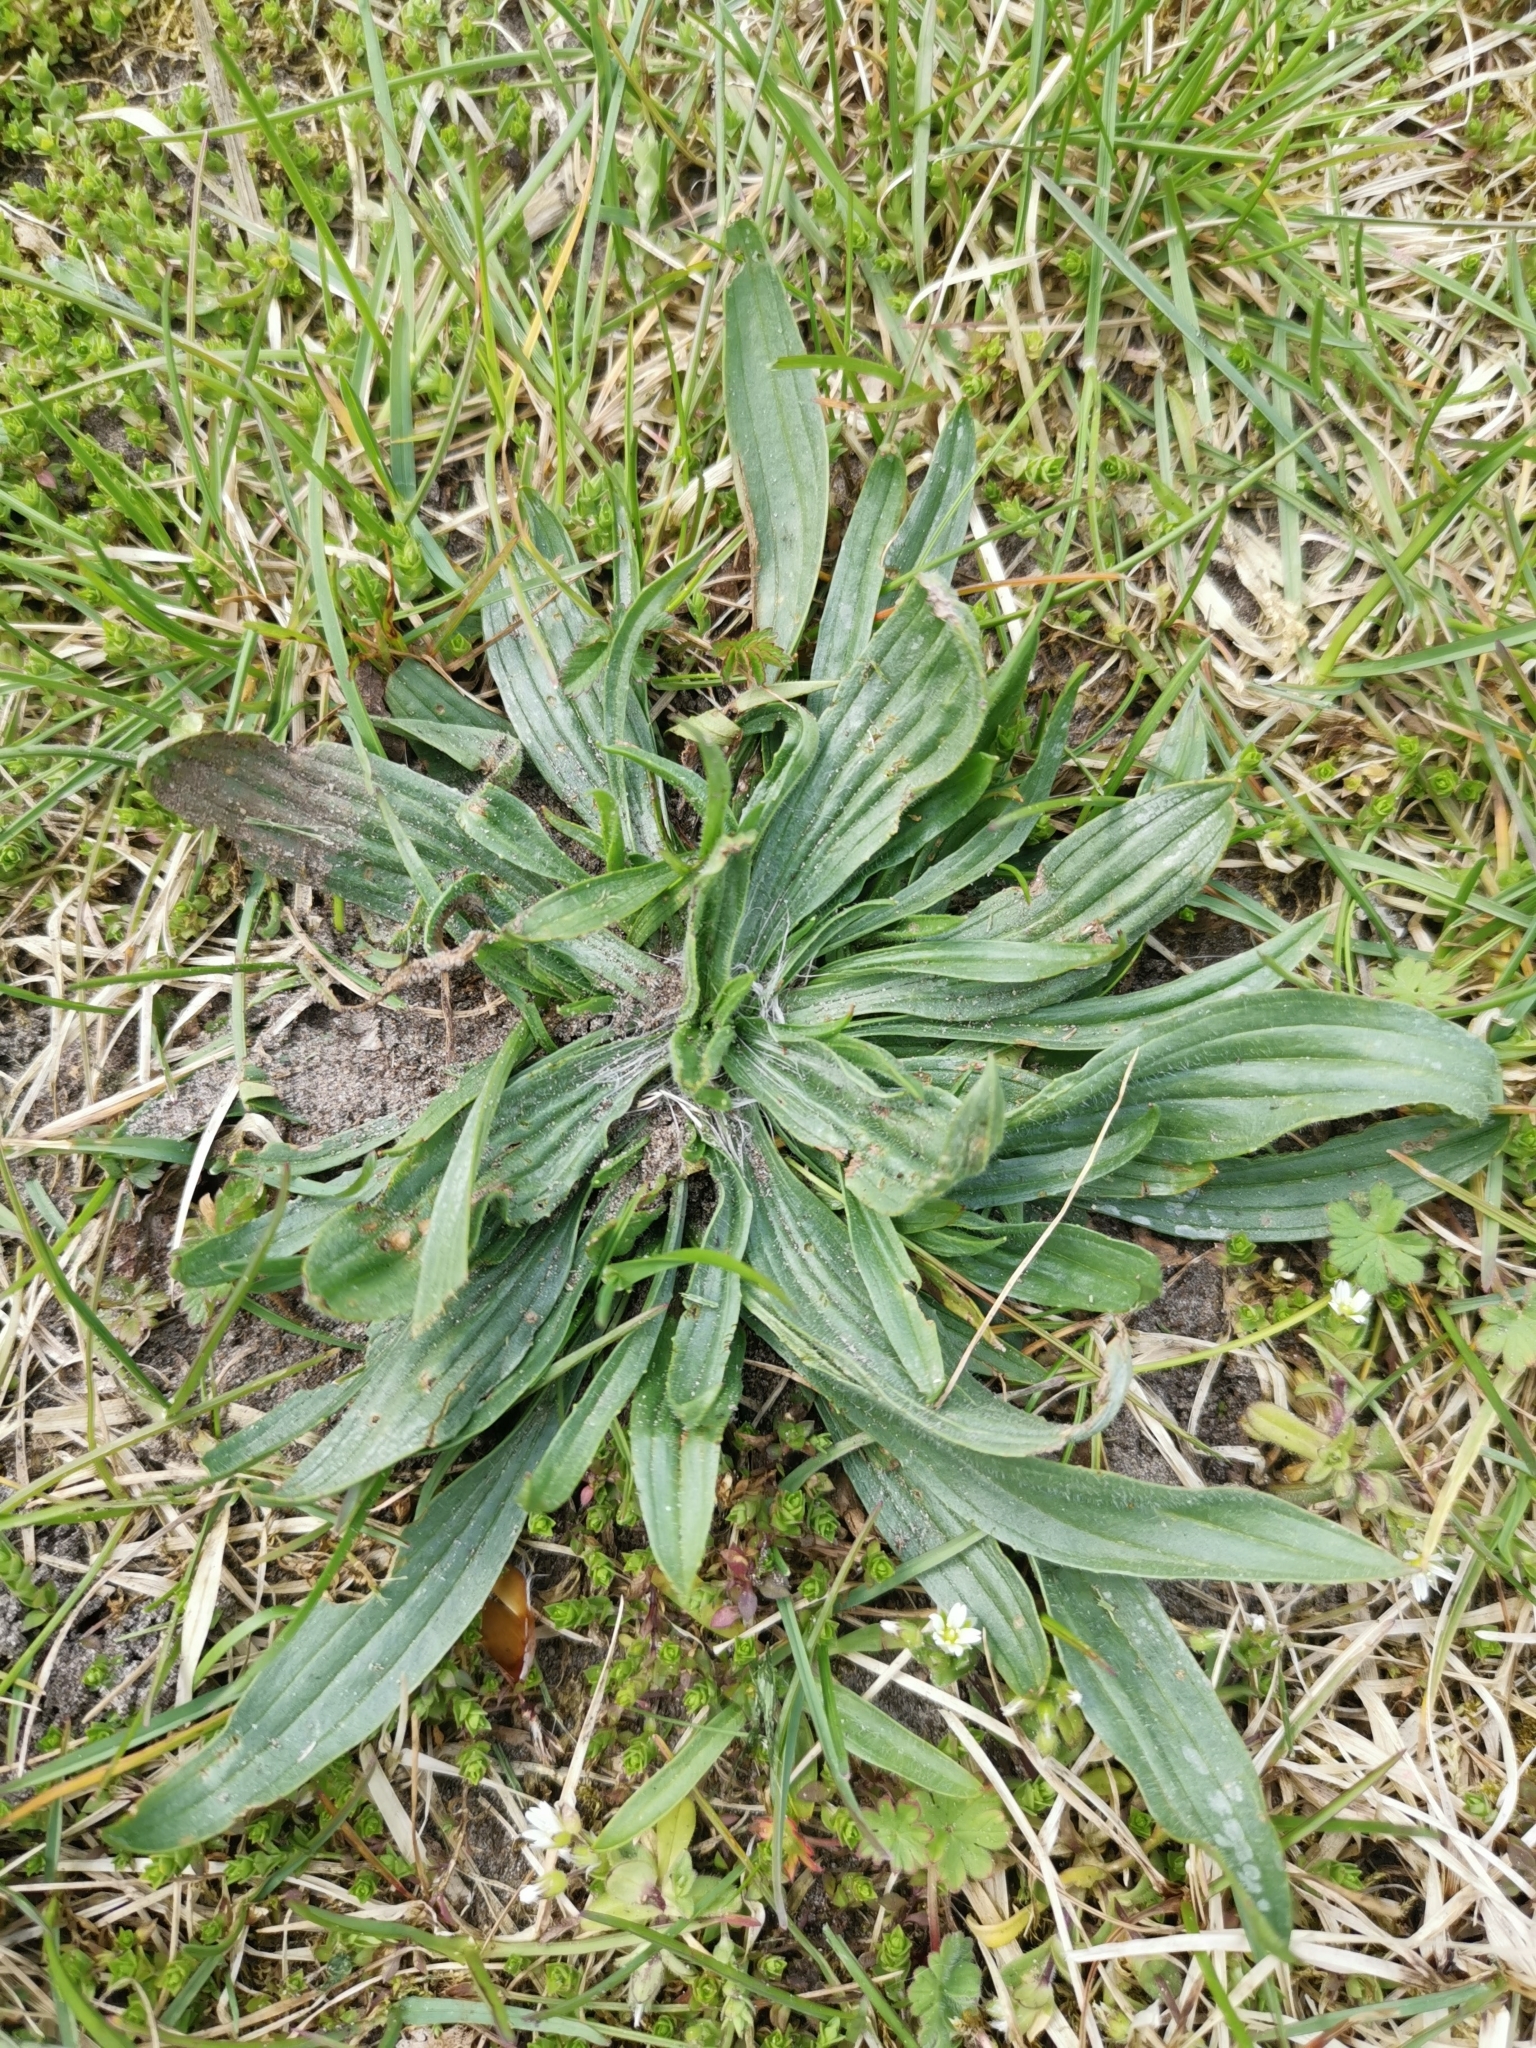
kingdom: Plantae
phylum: Tracheophyta
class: Magnoliopsida
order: Lamiales
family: Plantaginaceae
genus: Plantago
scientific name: Plantago lanceolata
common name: Ribwort plantain
